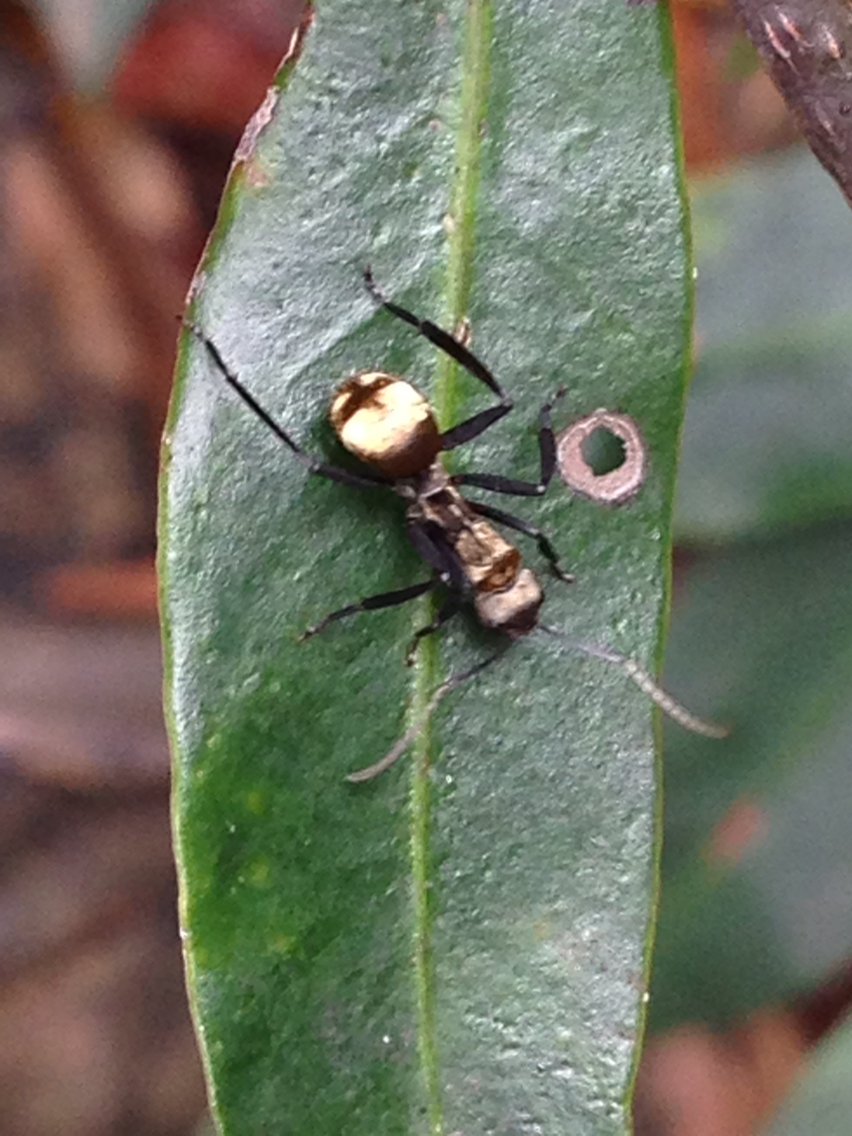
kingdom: Animalia
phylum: Arthropoda
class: Insecta
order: Hymenoptera
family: Formicidae
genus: Camponotus
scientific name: Camponotus sericeiventris
